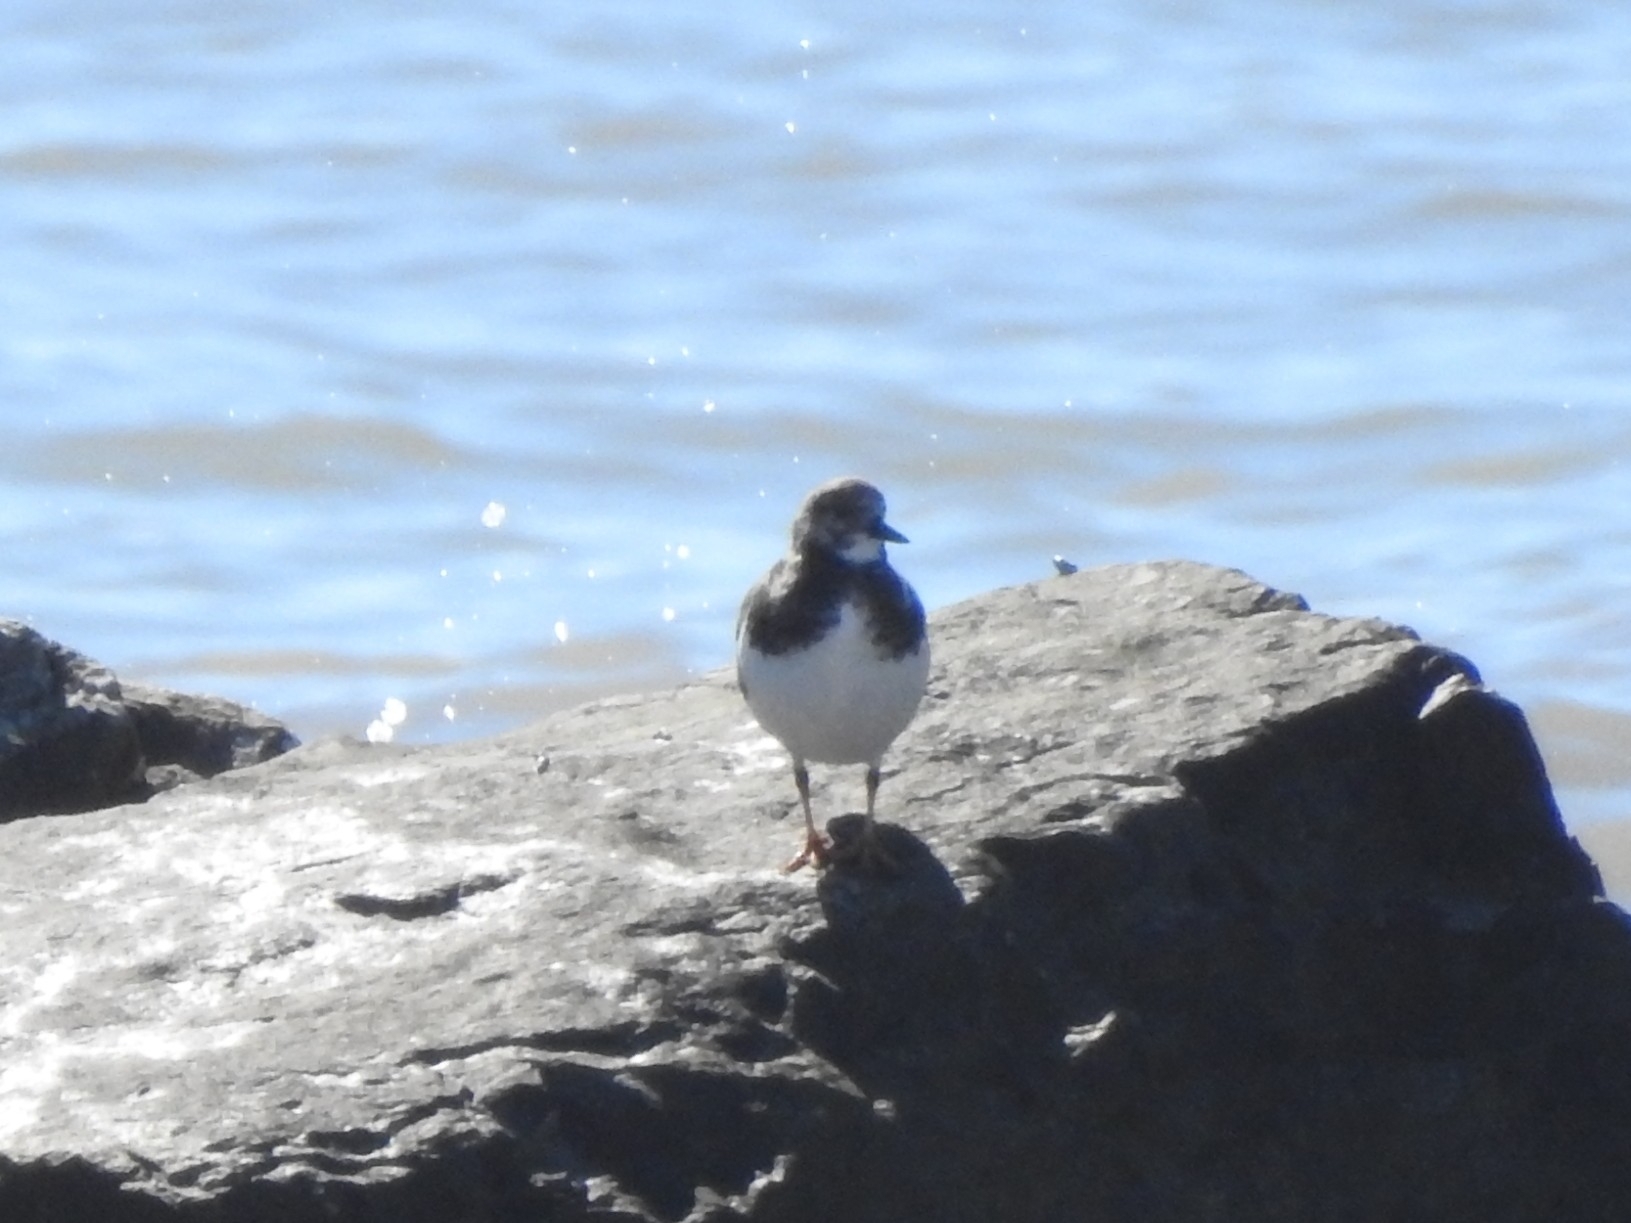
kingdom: Animalia
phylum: Chordata
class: Aves
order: Charadriiformes
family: Scolopacidae
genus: Arenaria
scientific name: Arenaria interpres
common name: Ruddy turnstone
